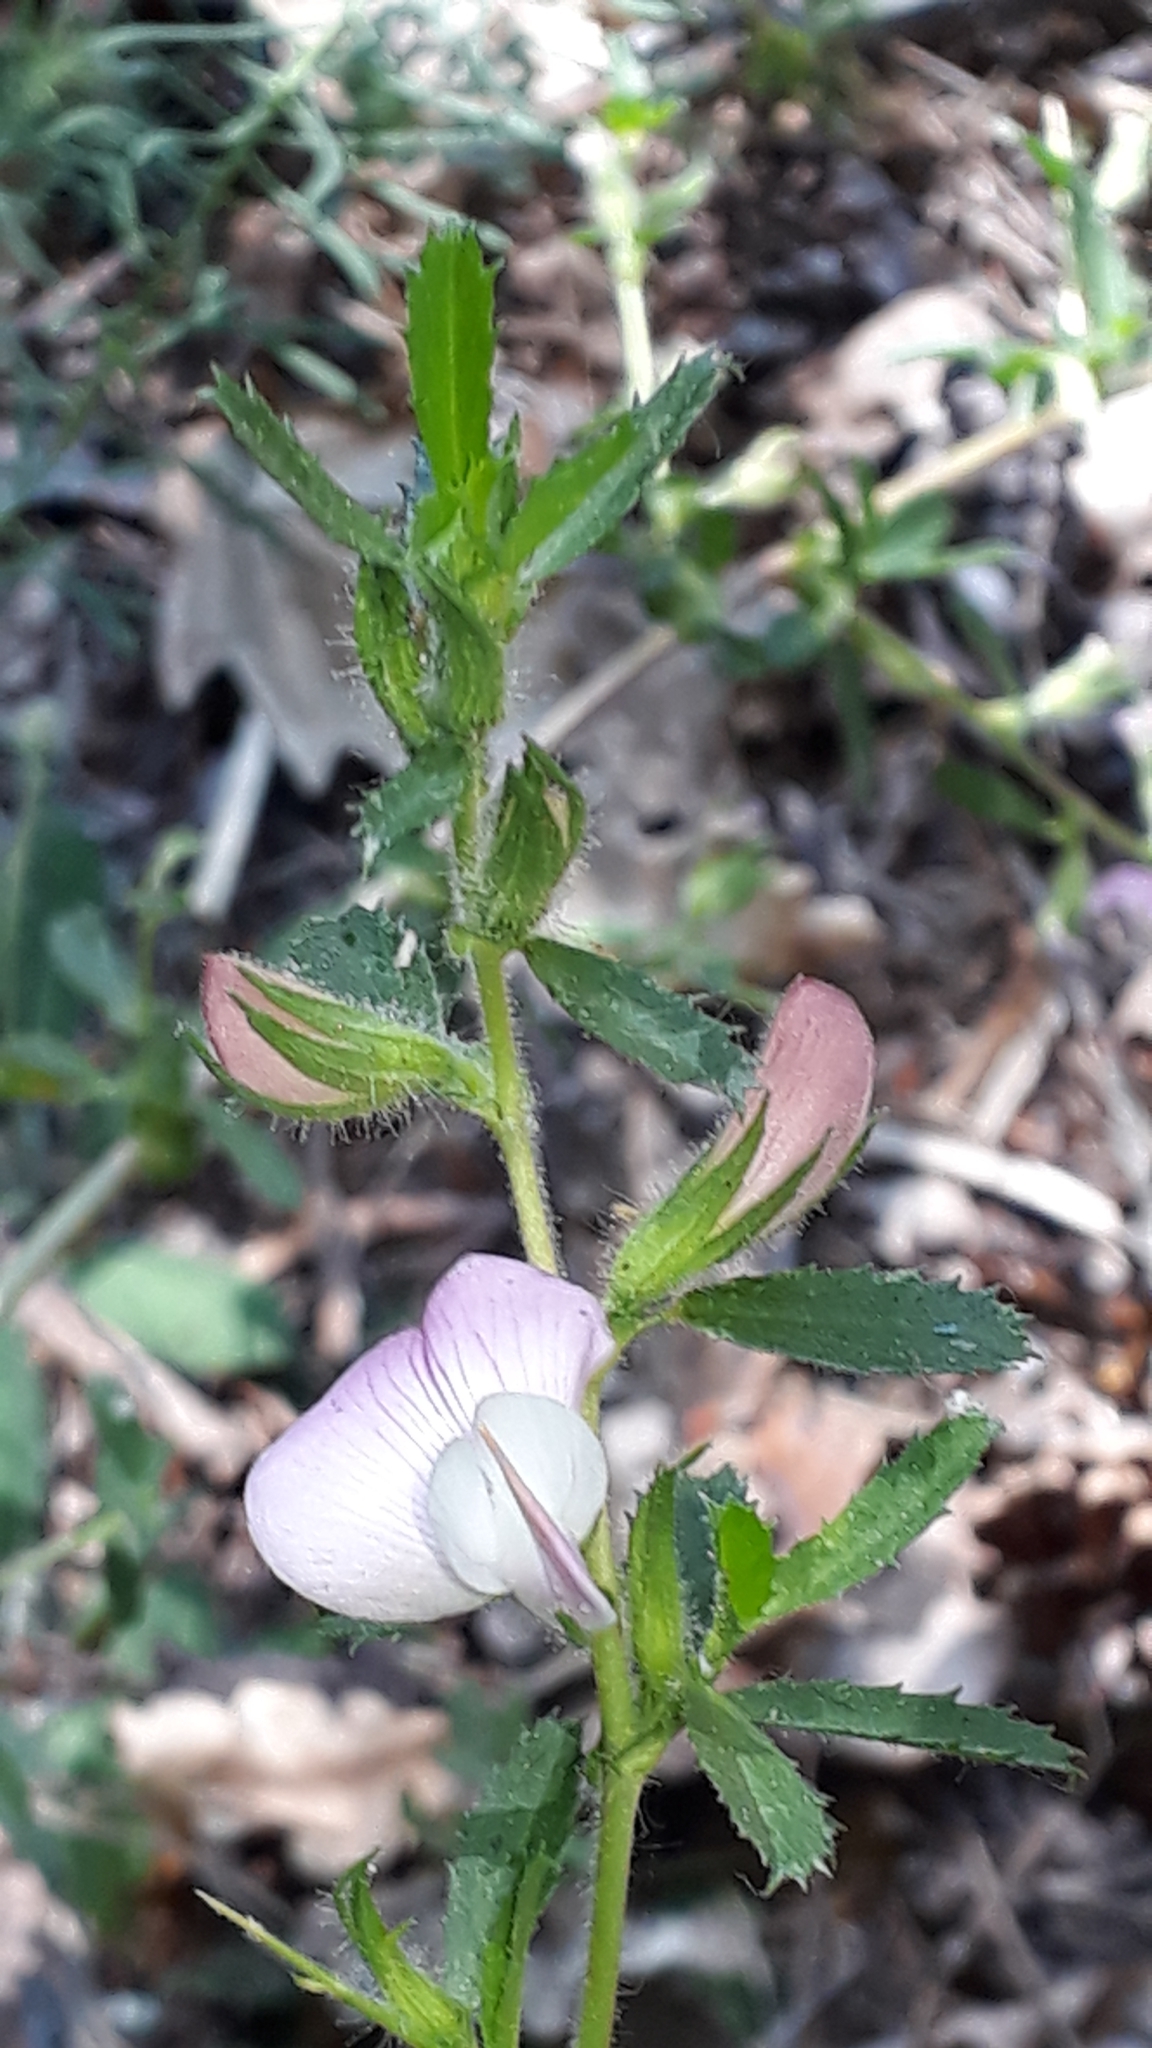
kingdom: Plantae
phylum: Tracheophyta
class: Magnoliopsida
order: Fabales
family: Fabaceae
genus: Ononis
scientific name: Ononis spinosa
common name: Spiny restharrow
